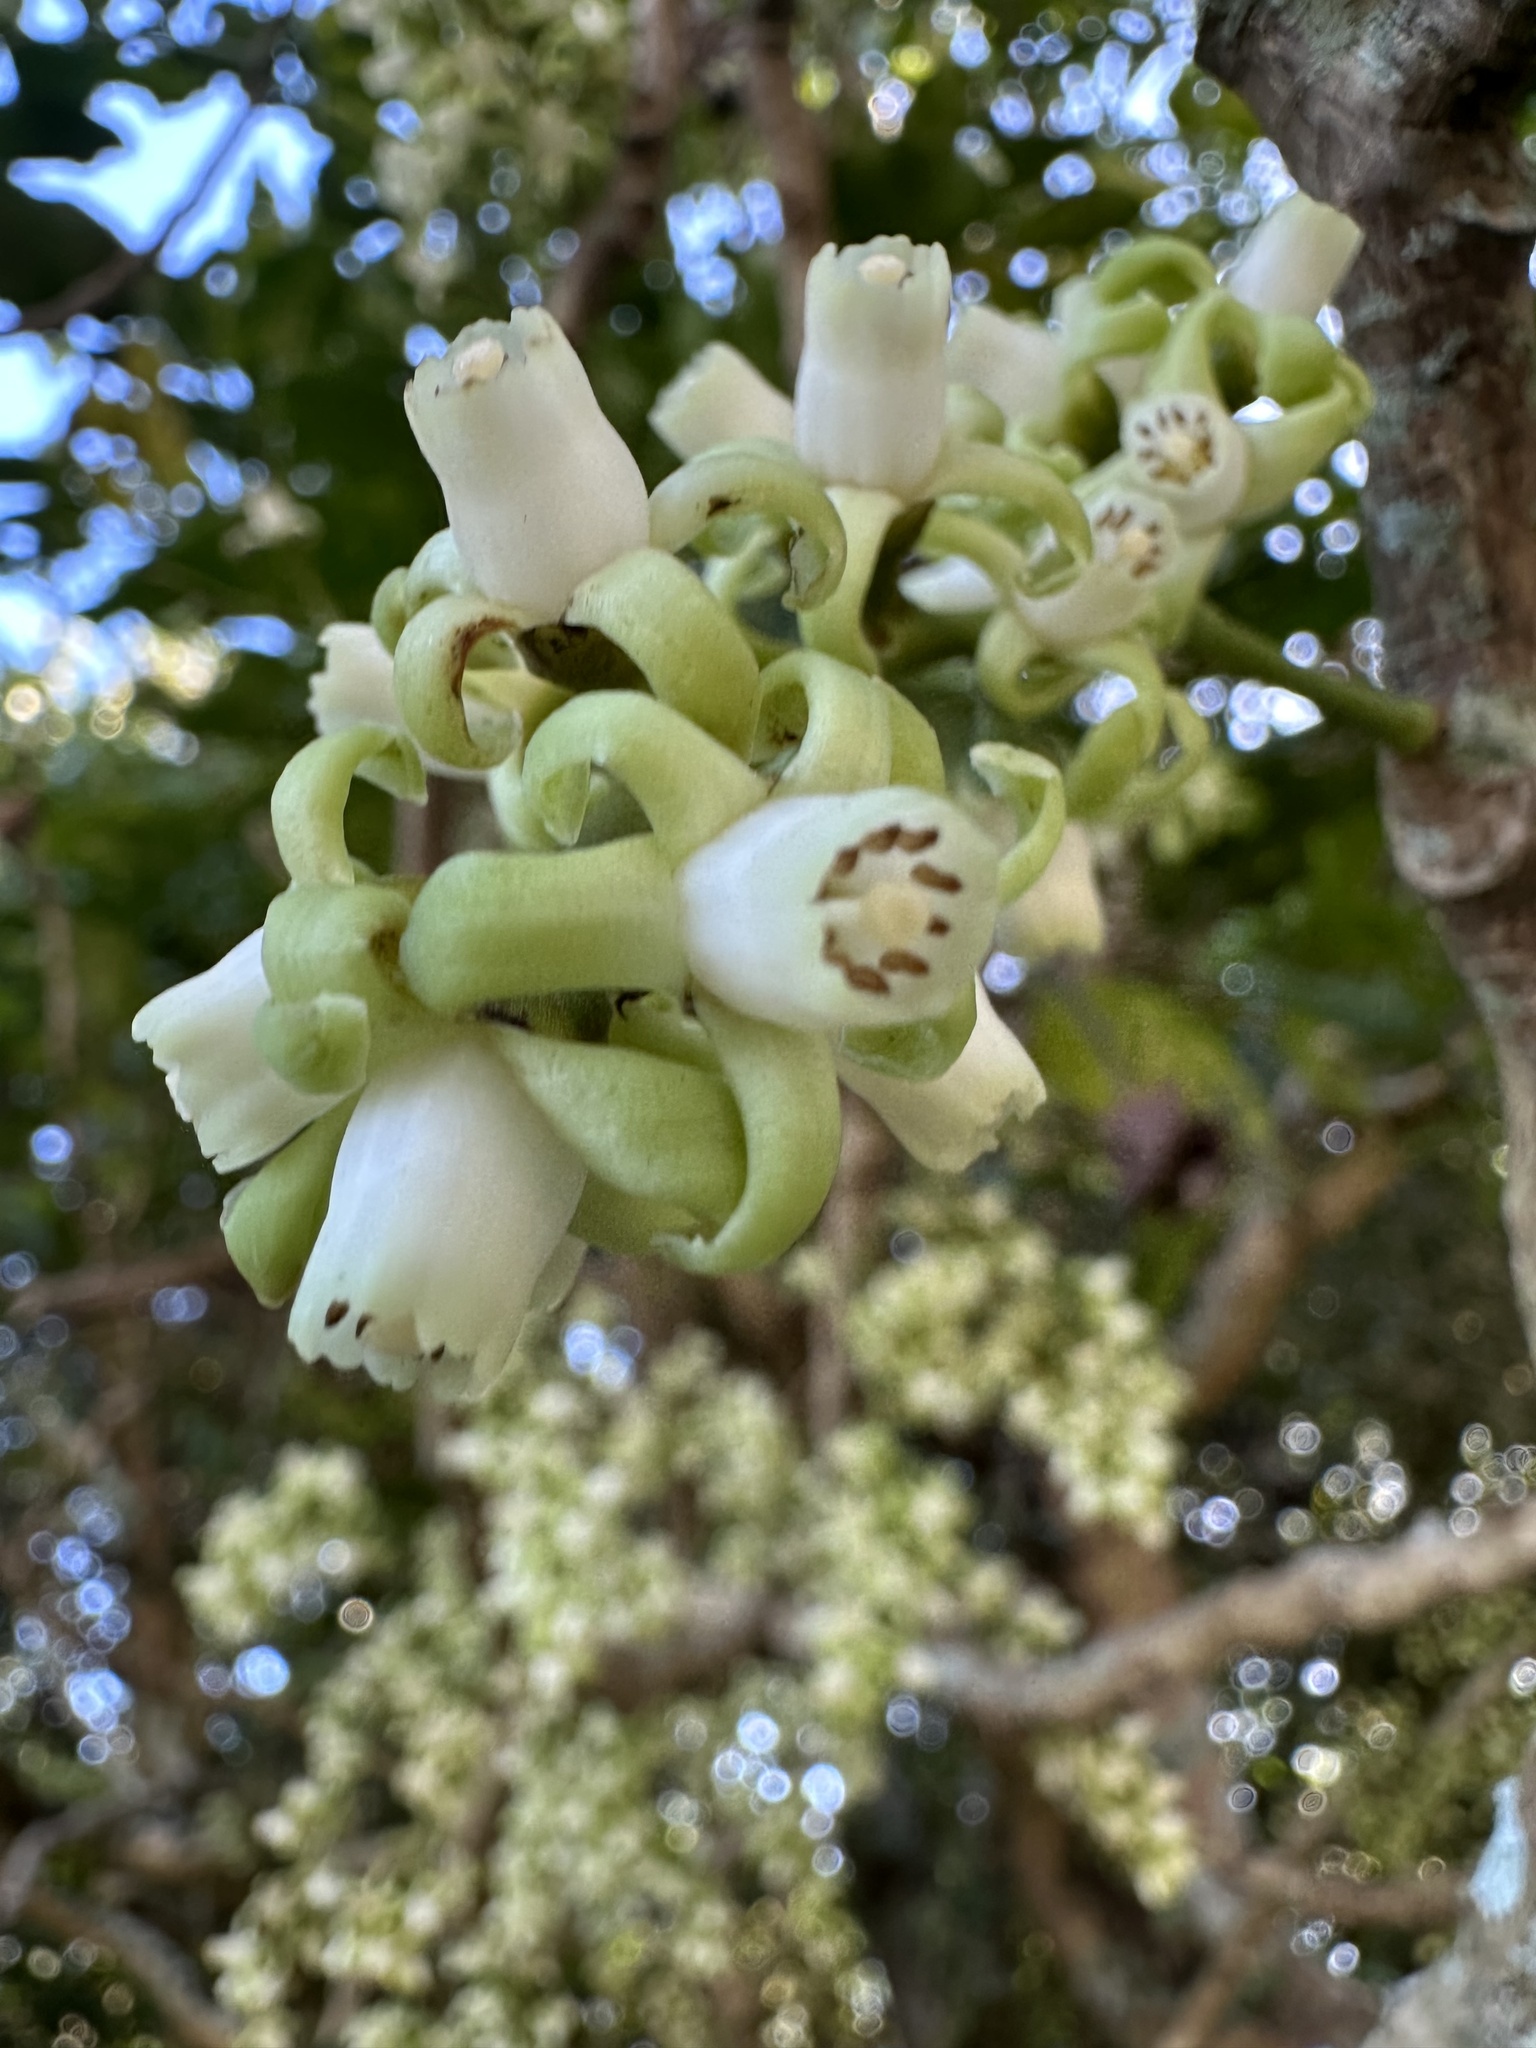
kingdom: Plantae
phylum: Tracheophyta
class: Magnoliopsida
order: Sapindales
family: Meliaceae
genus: Didymocheton
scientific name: Didymocheton spectabilis
